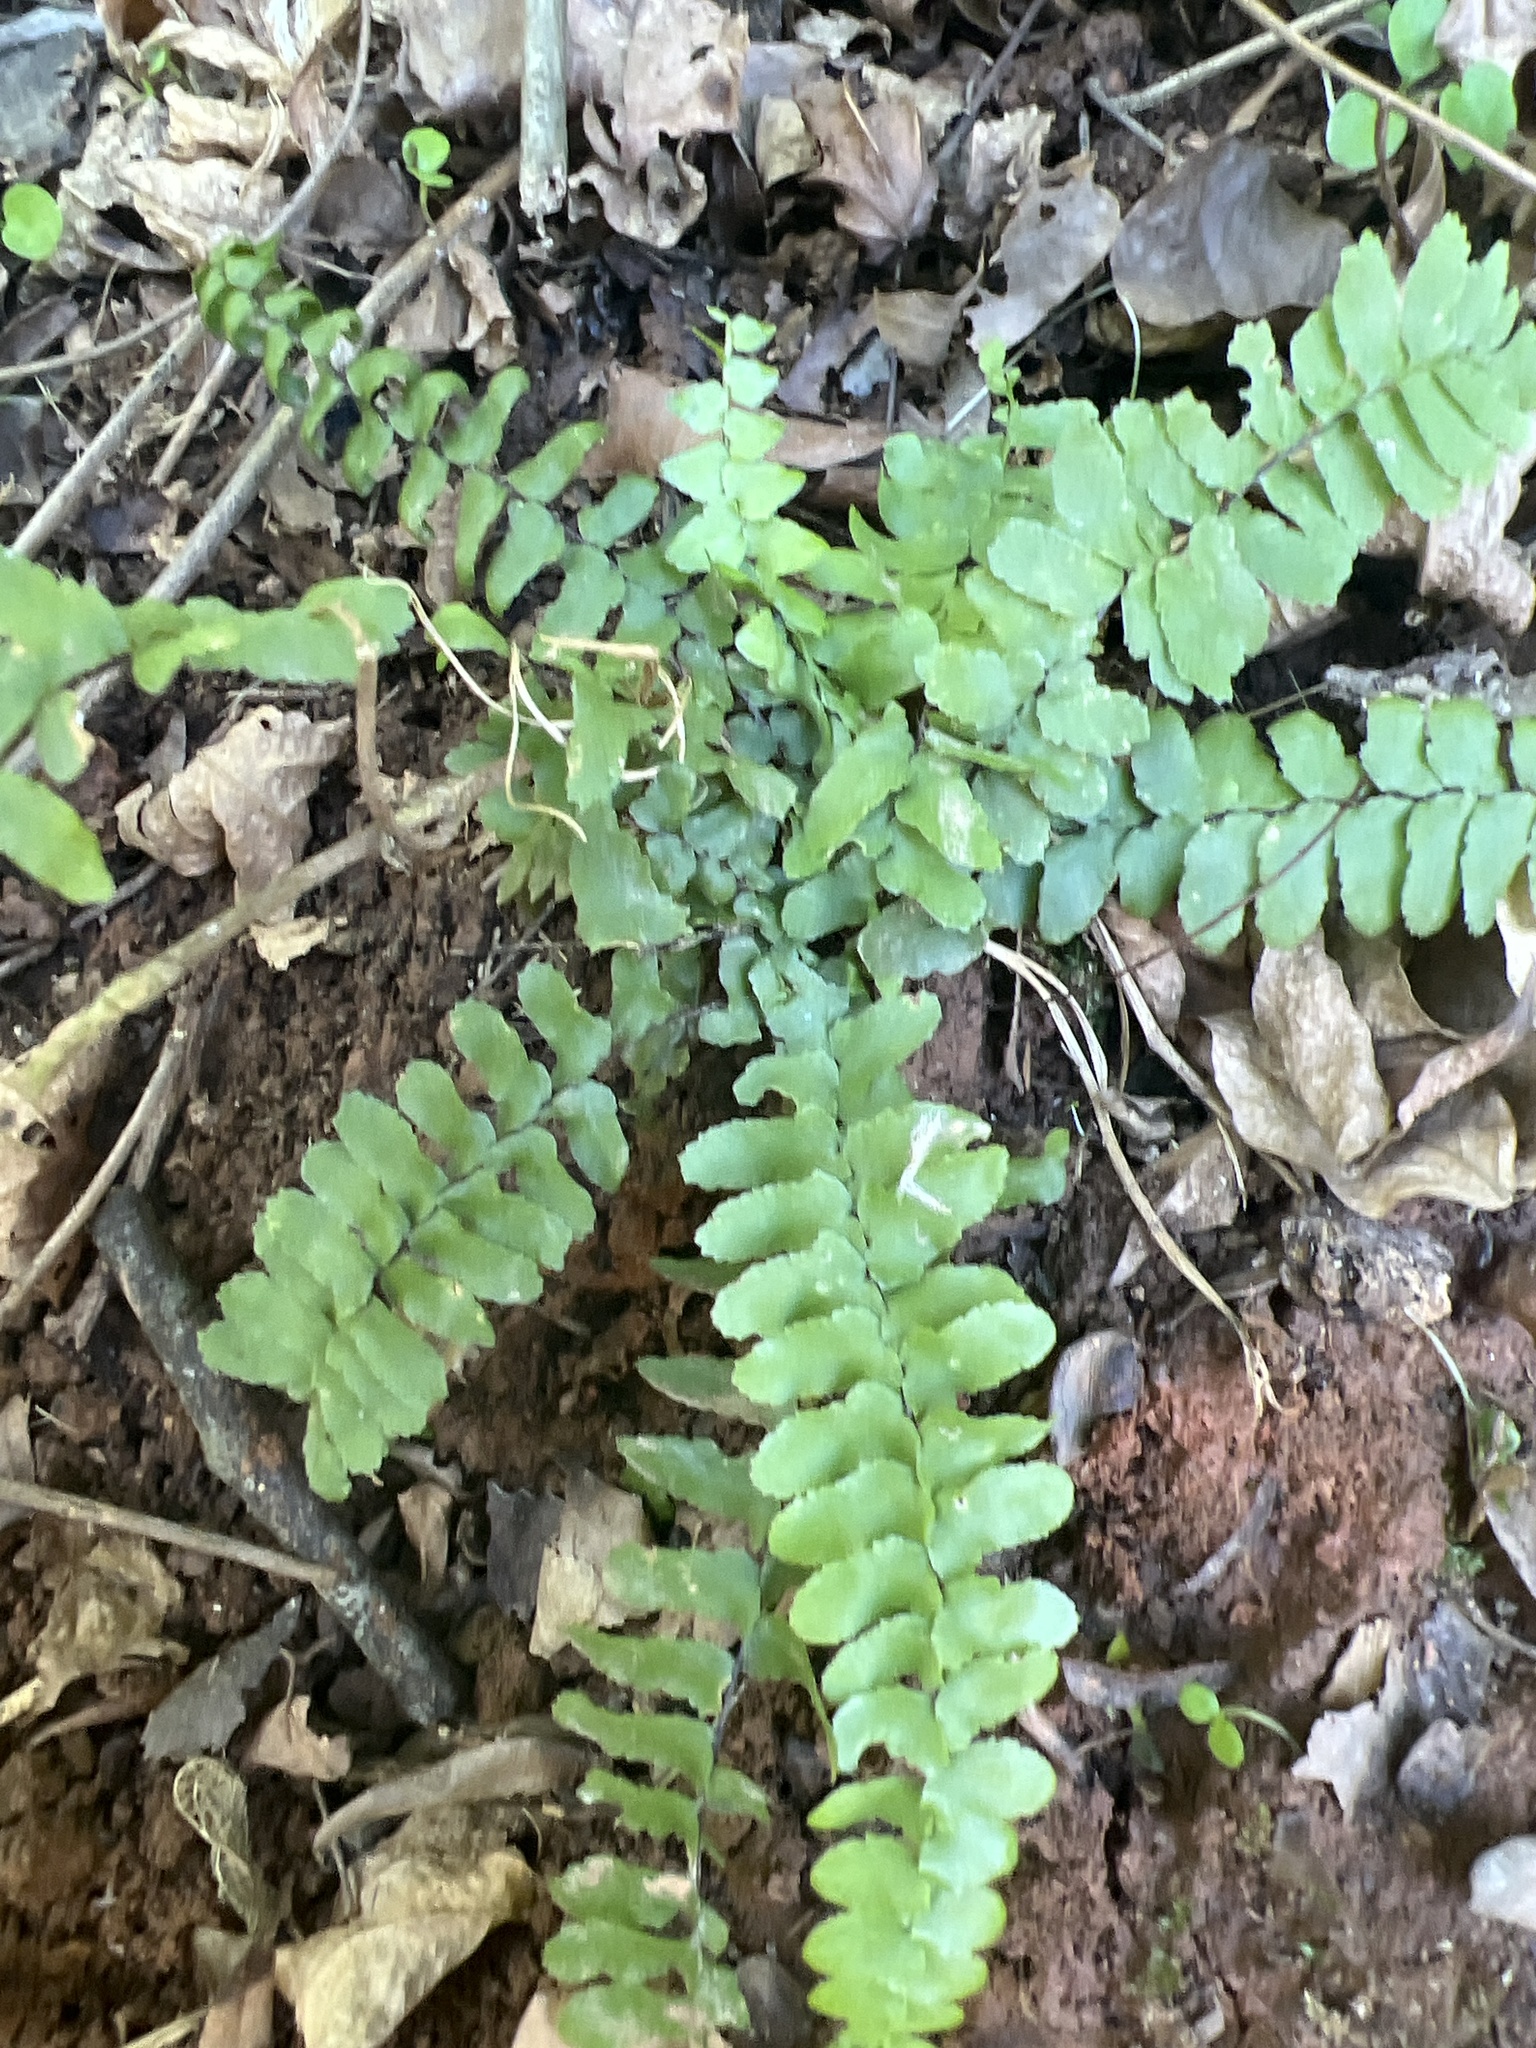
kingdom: Plantae
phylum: Tracheophyta
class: Polypodiopsida
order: Polypodiales
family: Aspleniaceae
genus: Asplenium
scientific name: Asplenium platyneuron
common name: Ebony spleenwort
